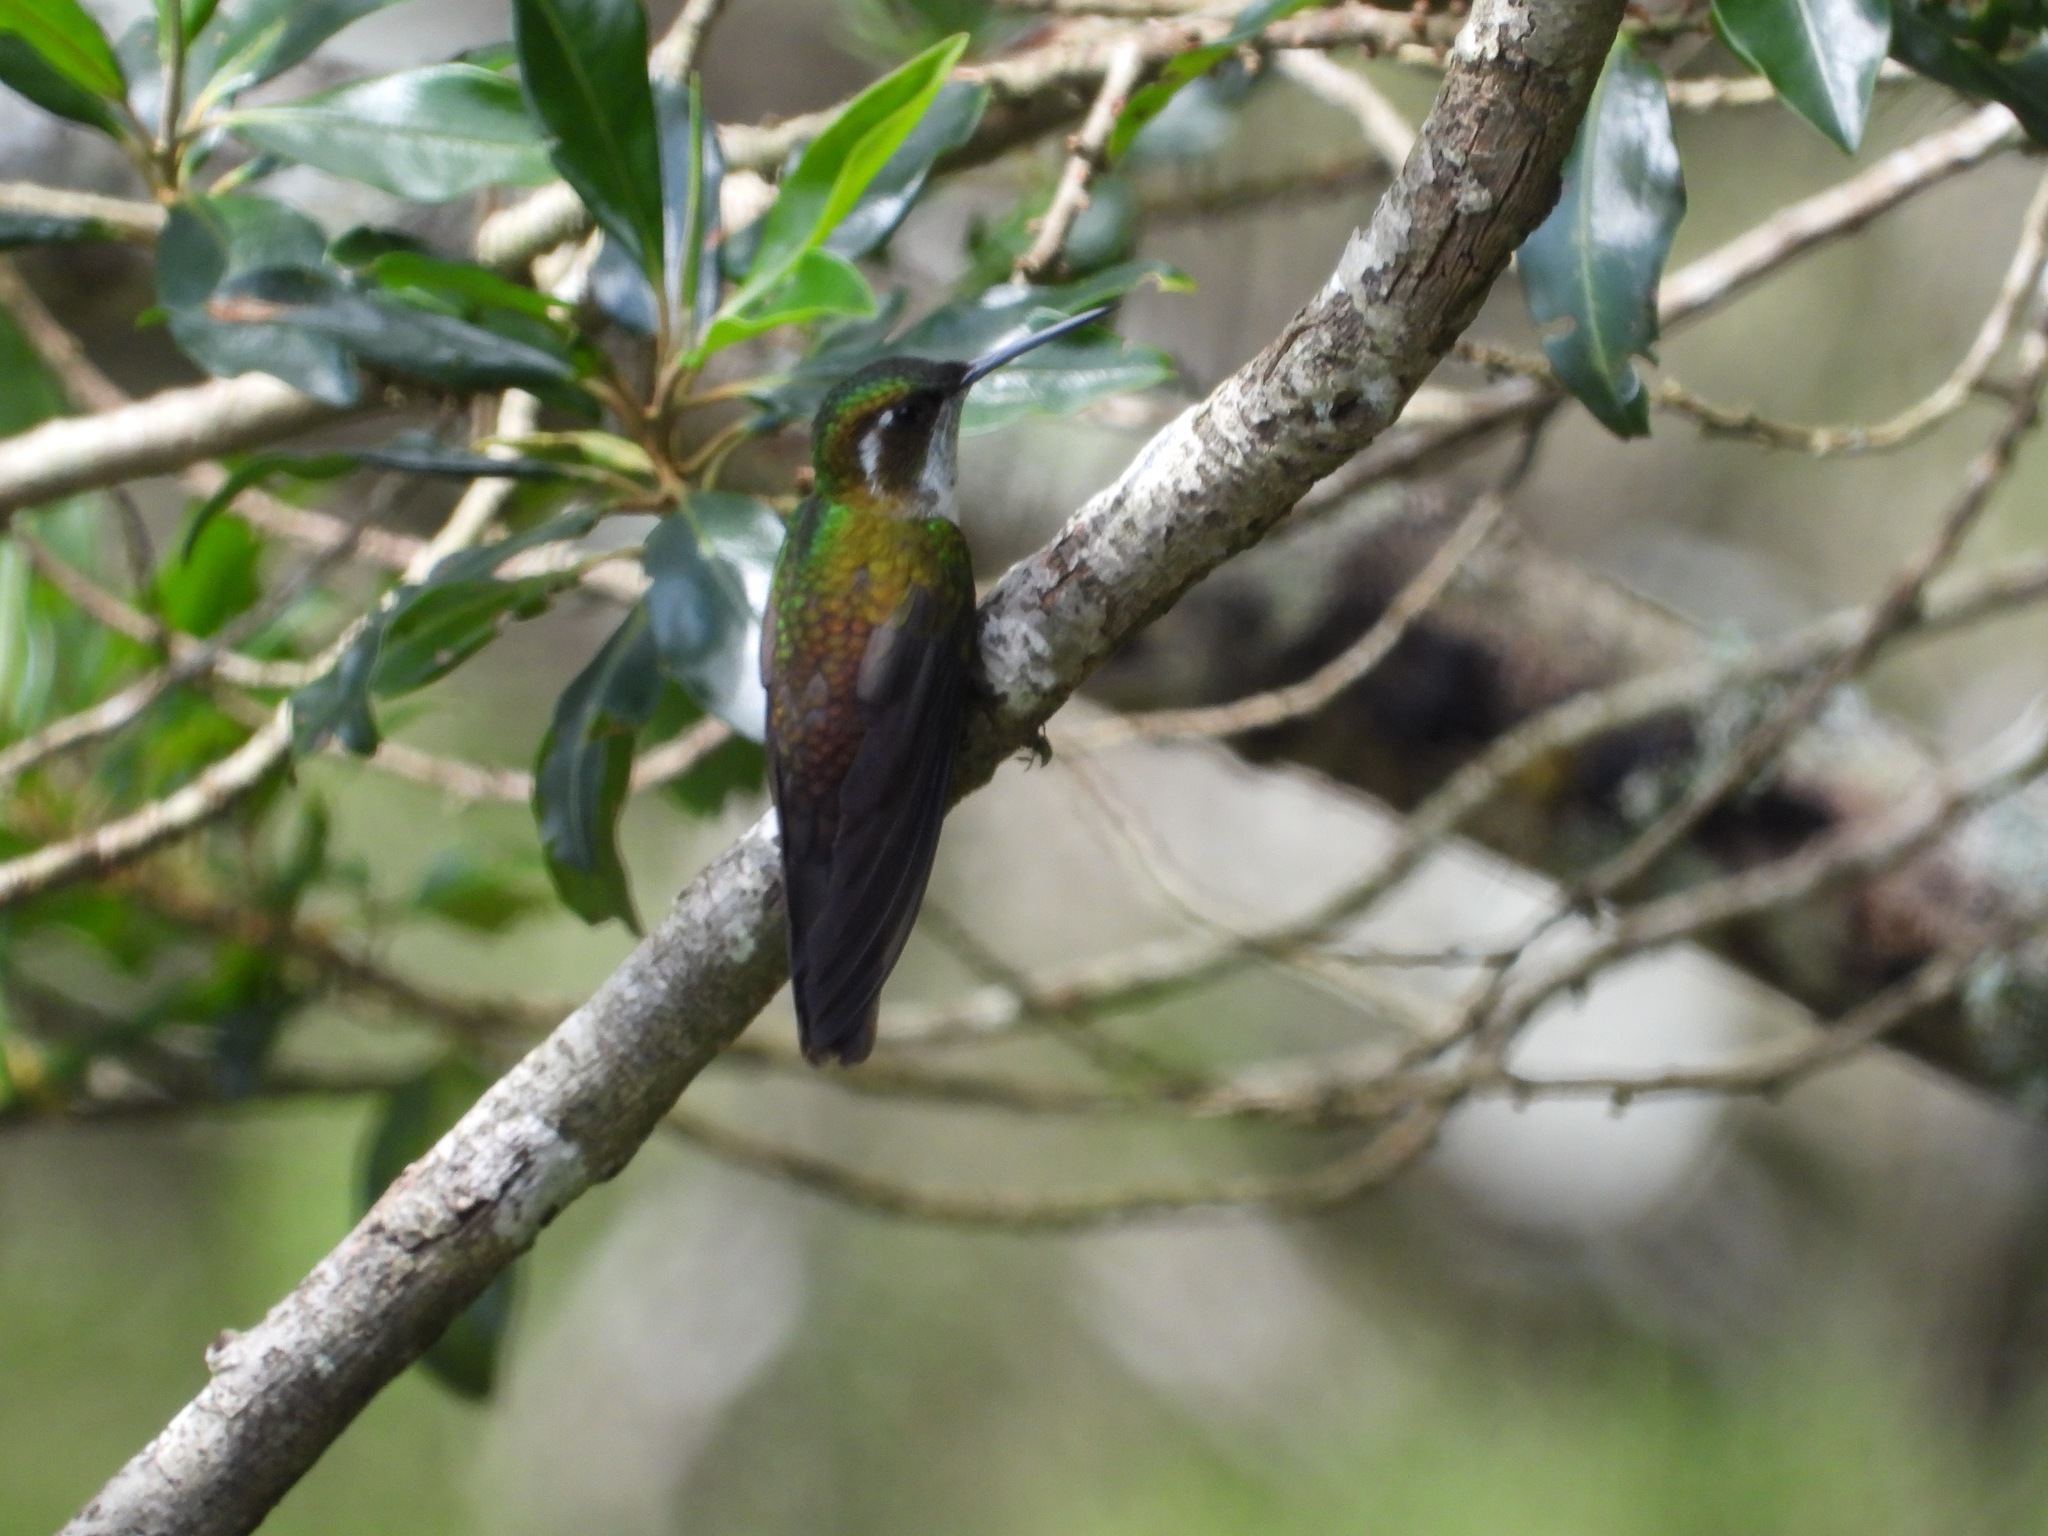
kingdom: Animalia
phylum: Chordata
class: Aves
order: Apodiformes
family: Trochilidae
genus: Lampornis
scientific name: Lampornis viridipallens
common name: Green-throated mountain-gem
